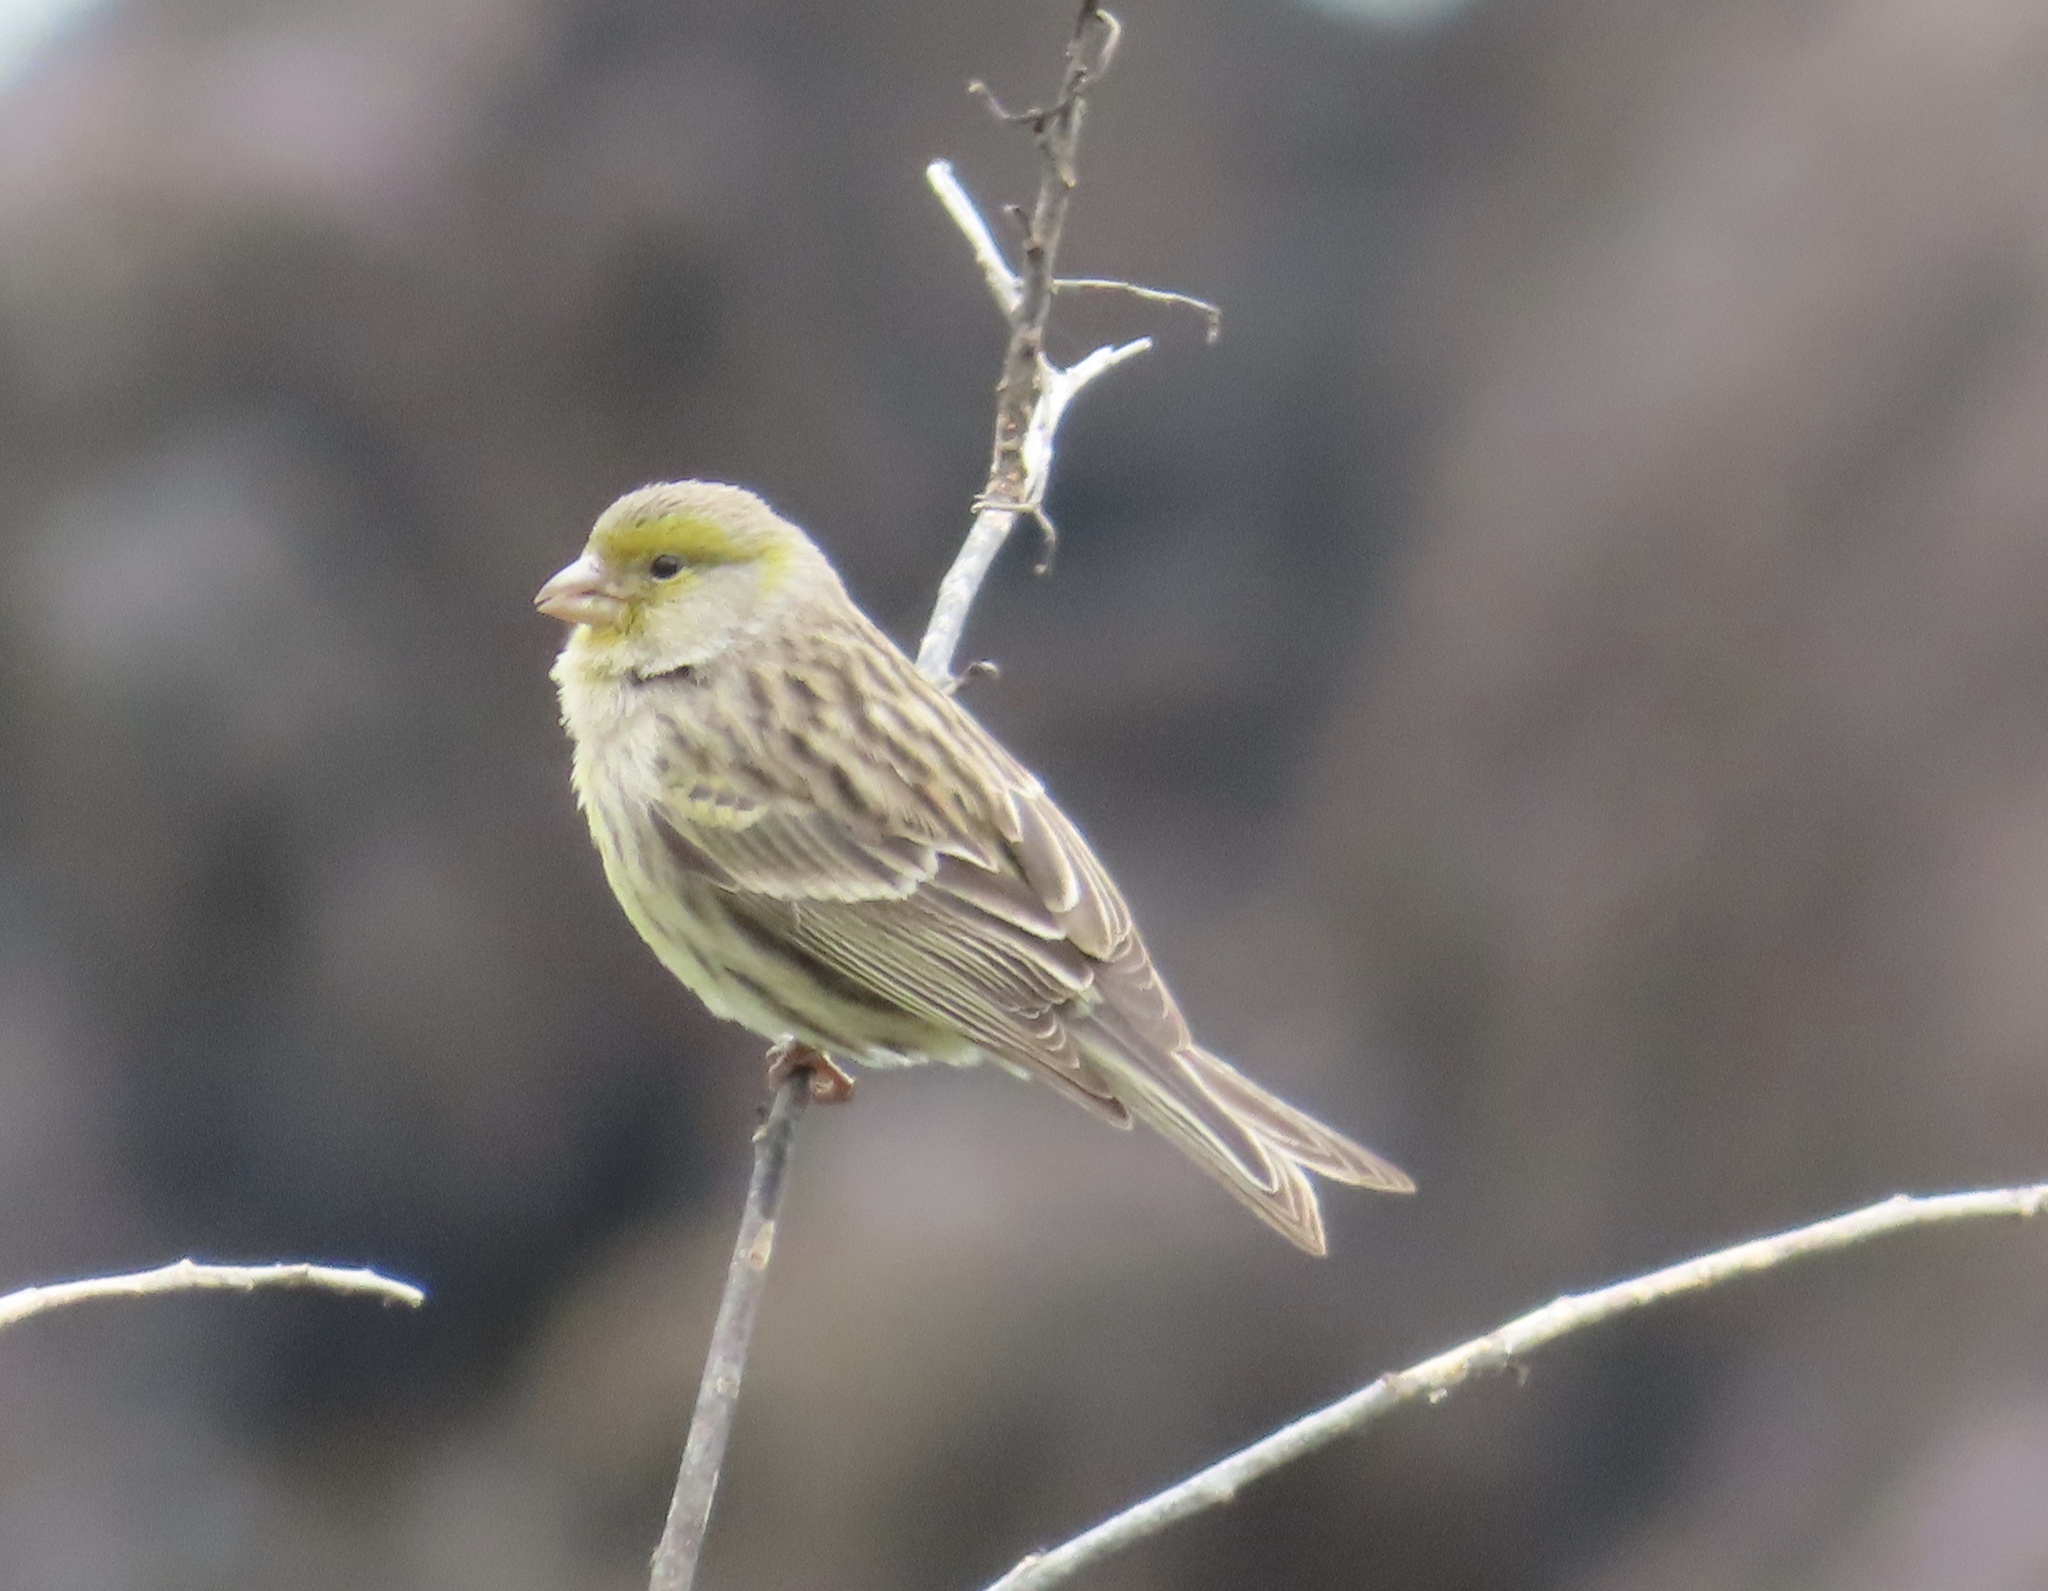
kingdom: Animalia
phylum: Chordata
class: Aves
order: Passeriformes
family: Fringillidae
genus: Serinus
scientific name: Serinus canaria
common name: Atlantic canary
